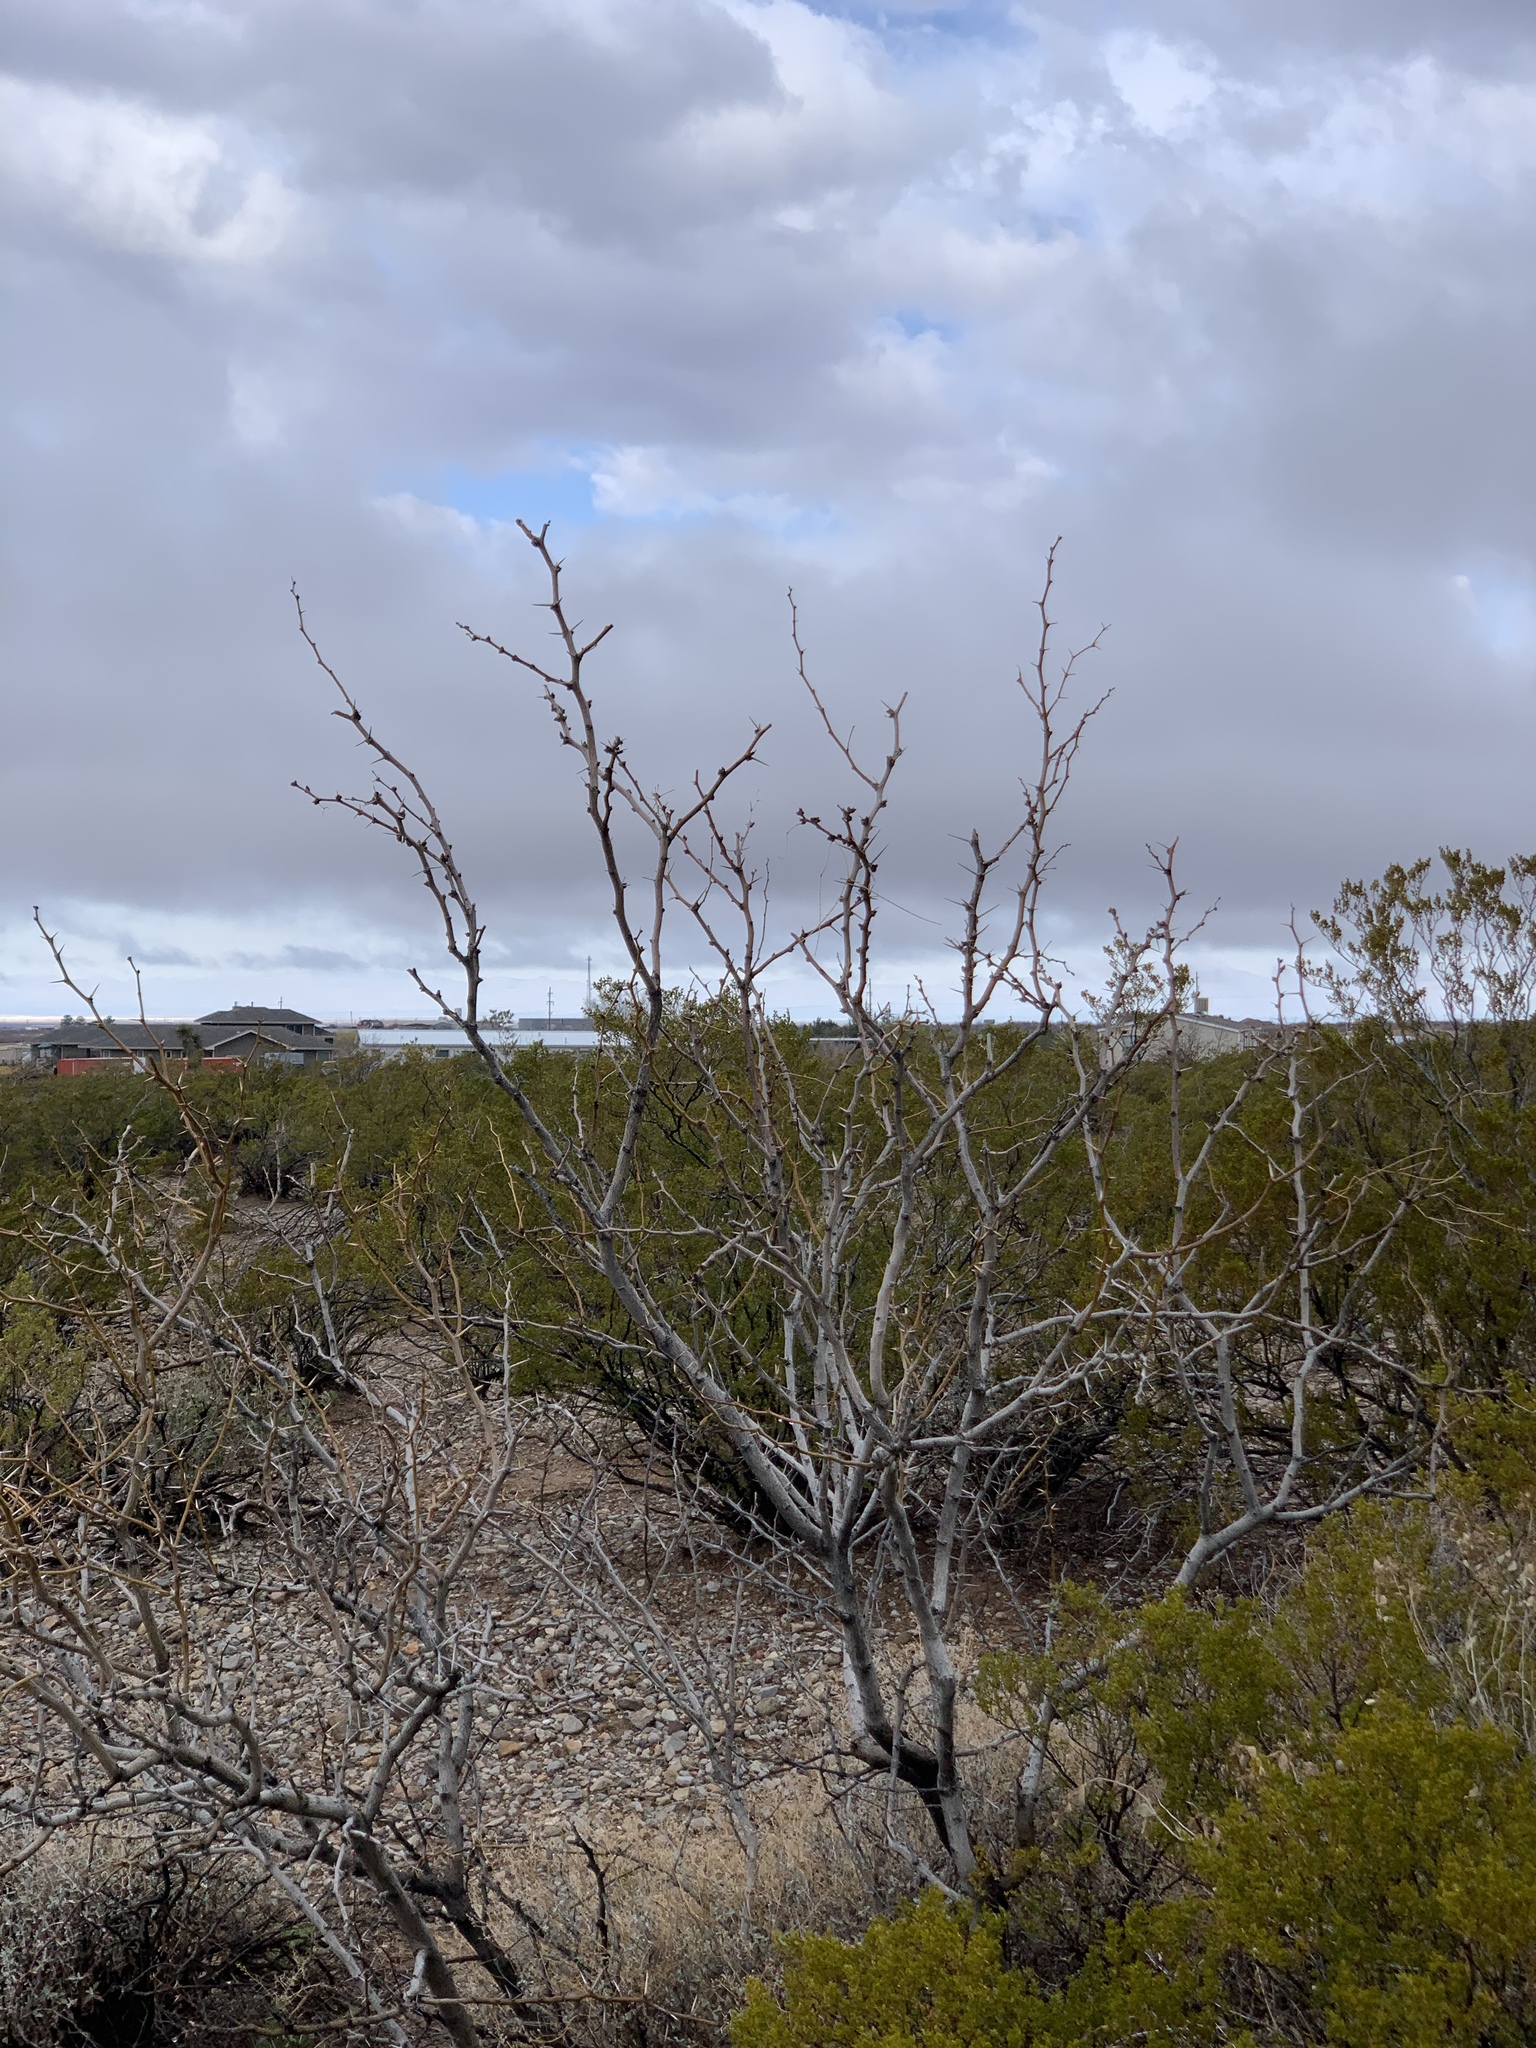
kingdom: Plantae
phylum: Tracheophyta
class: Magnoliopsida
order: Fabales
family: Fabaceae
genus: Prosopis
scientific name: Prosopis glandulosa
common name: Honey mesquite
